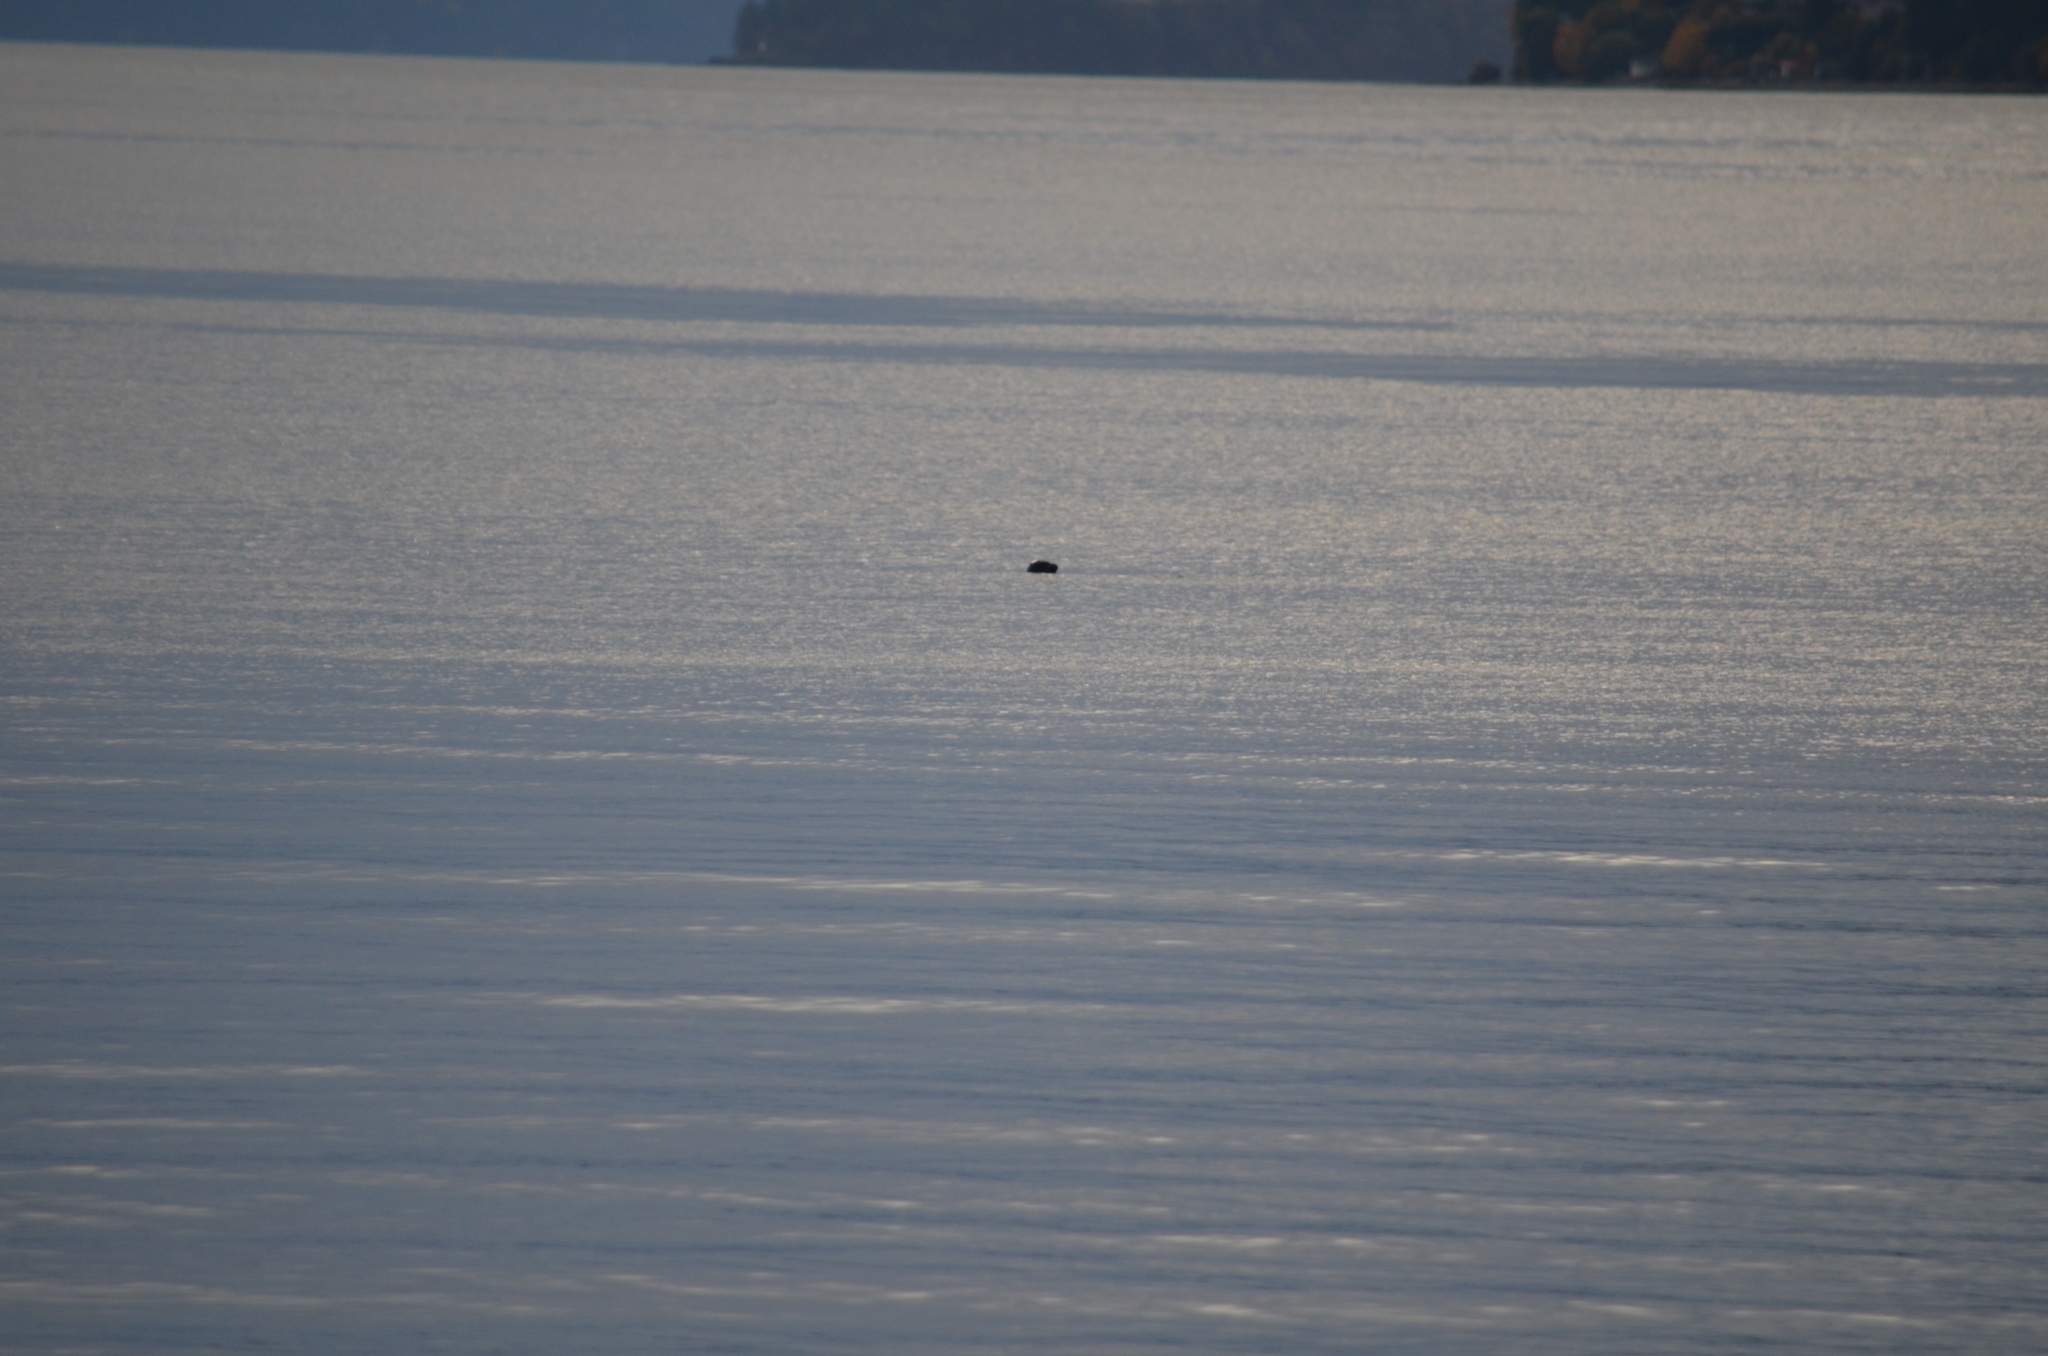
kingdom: Animalia
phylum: Chordata
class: Mammalia
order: Carnivora
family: Phocidae
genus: Phoca
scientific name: Phoca vitulina
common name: Harbor seal
